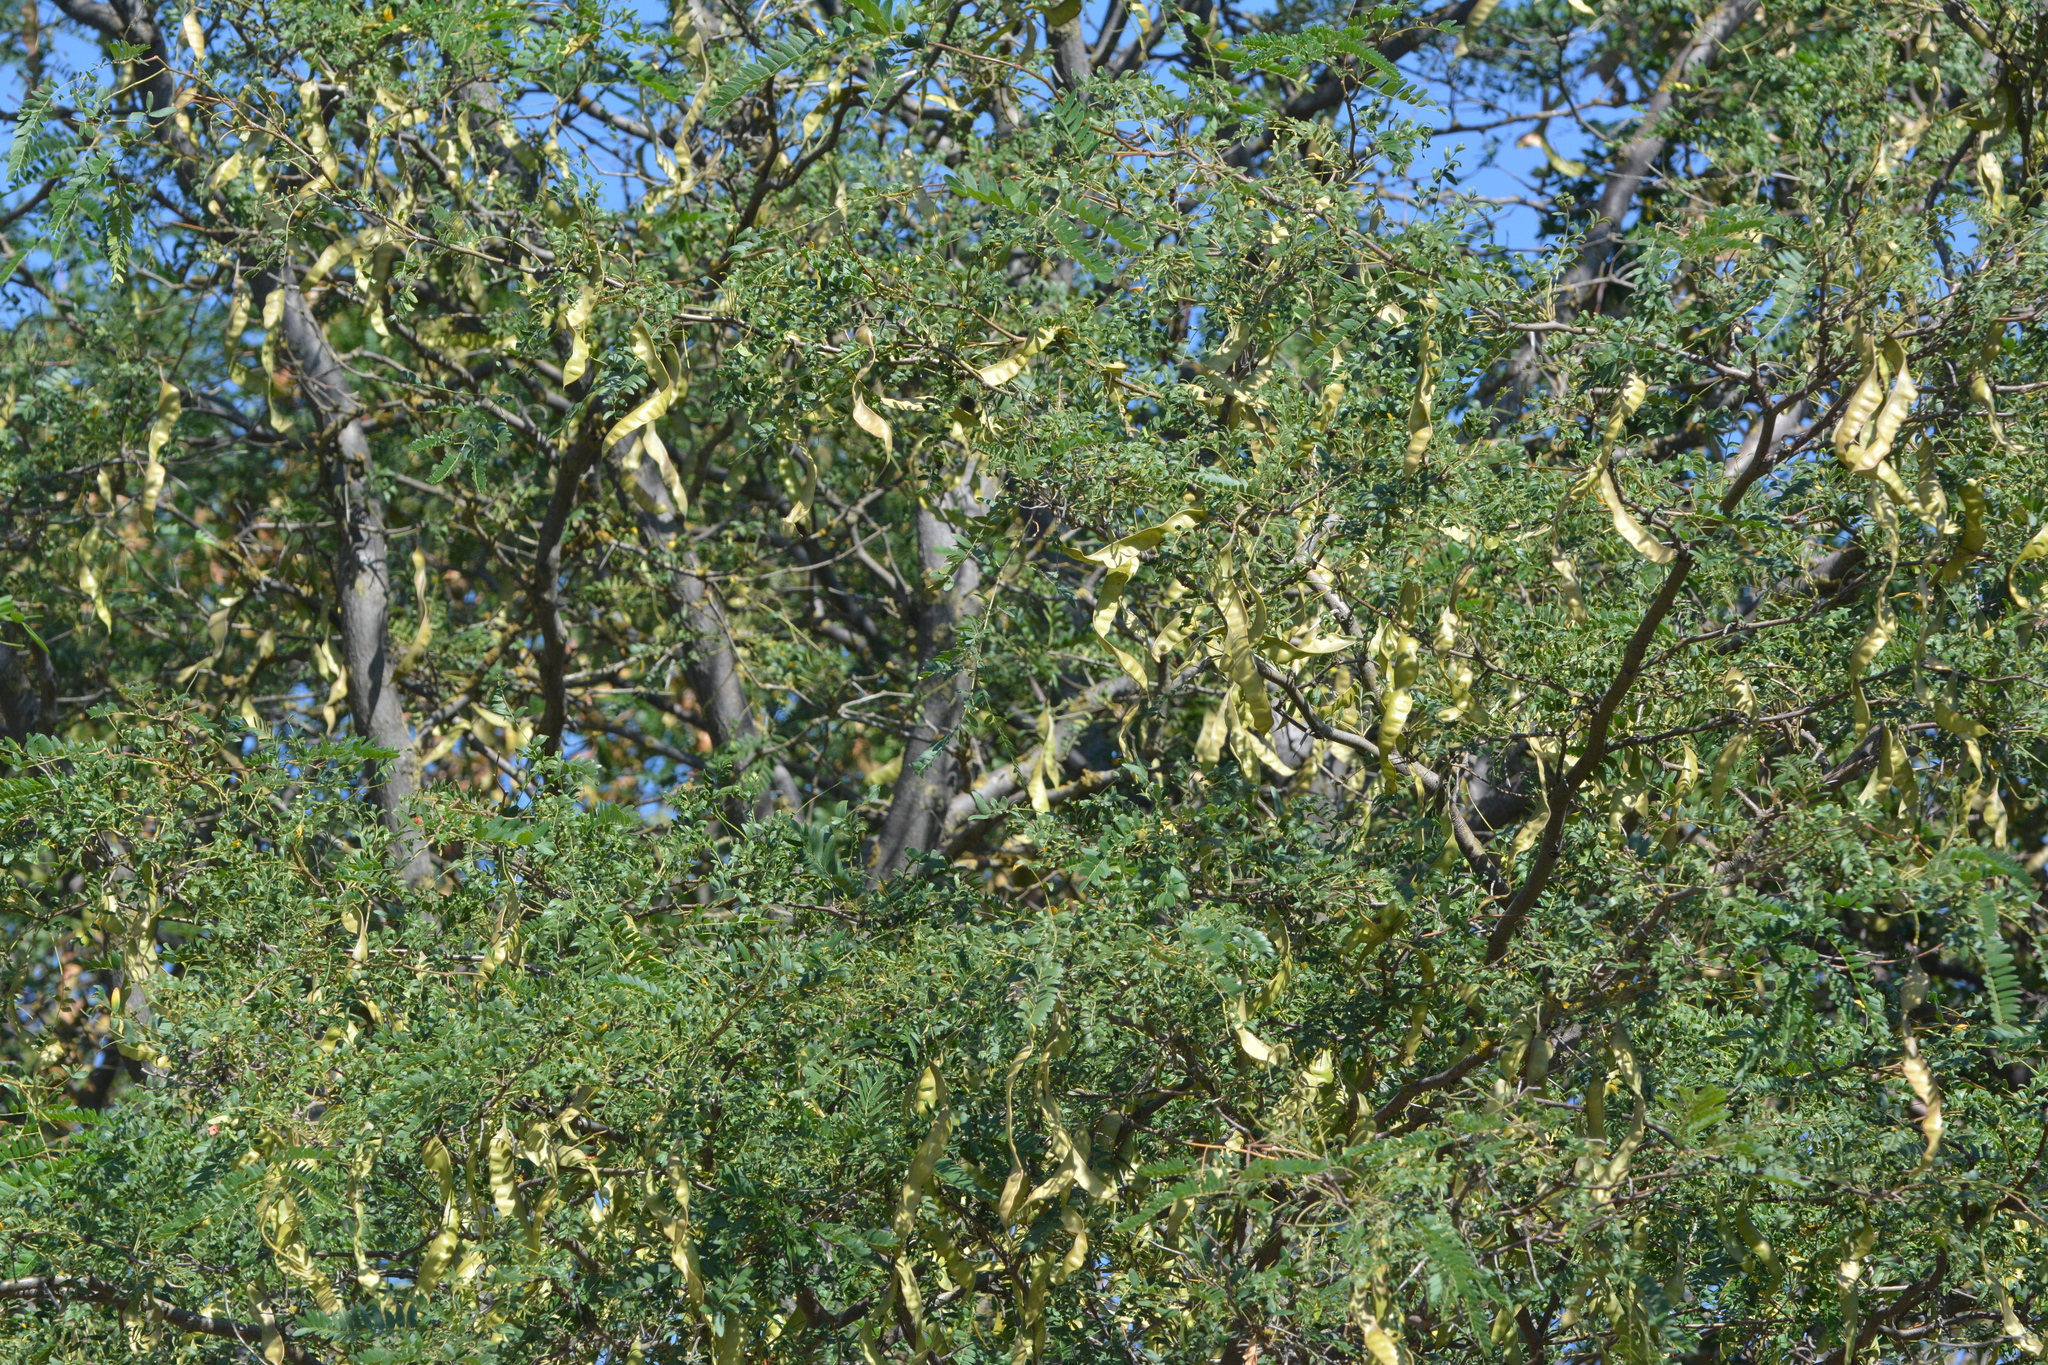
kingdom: Plantae
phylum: Tracheophyta
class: Magnoliopsida
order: Fabales
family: Fabaceae
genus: Gleditsia
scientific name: Gleditsia triacanthos
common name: Common honeylocust
